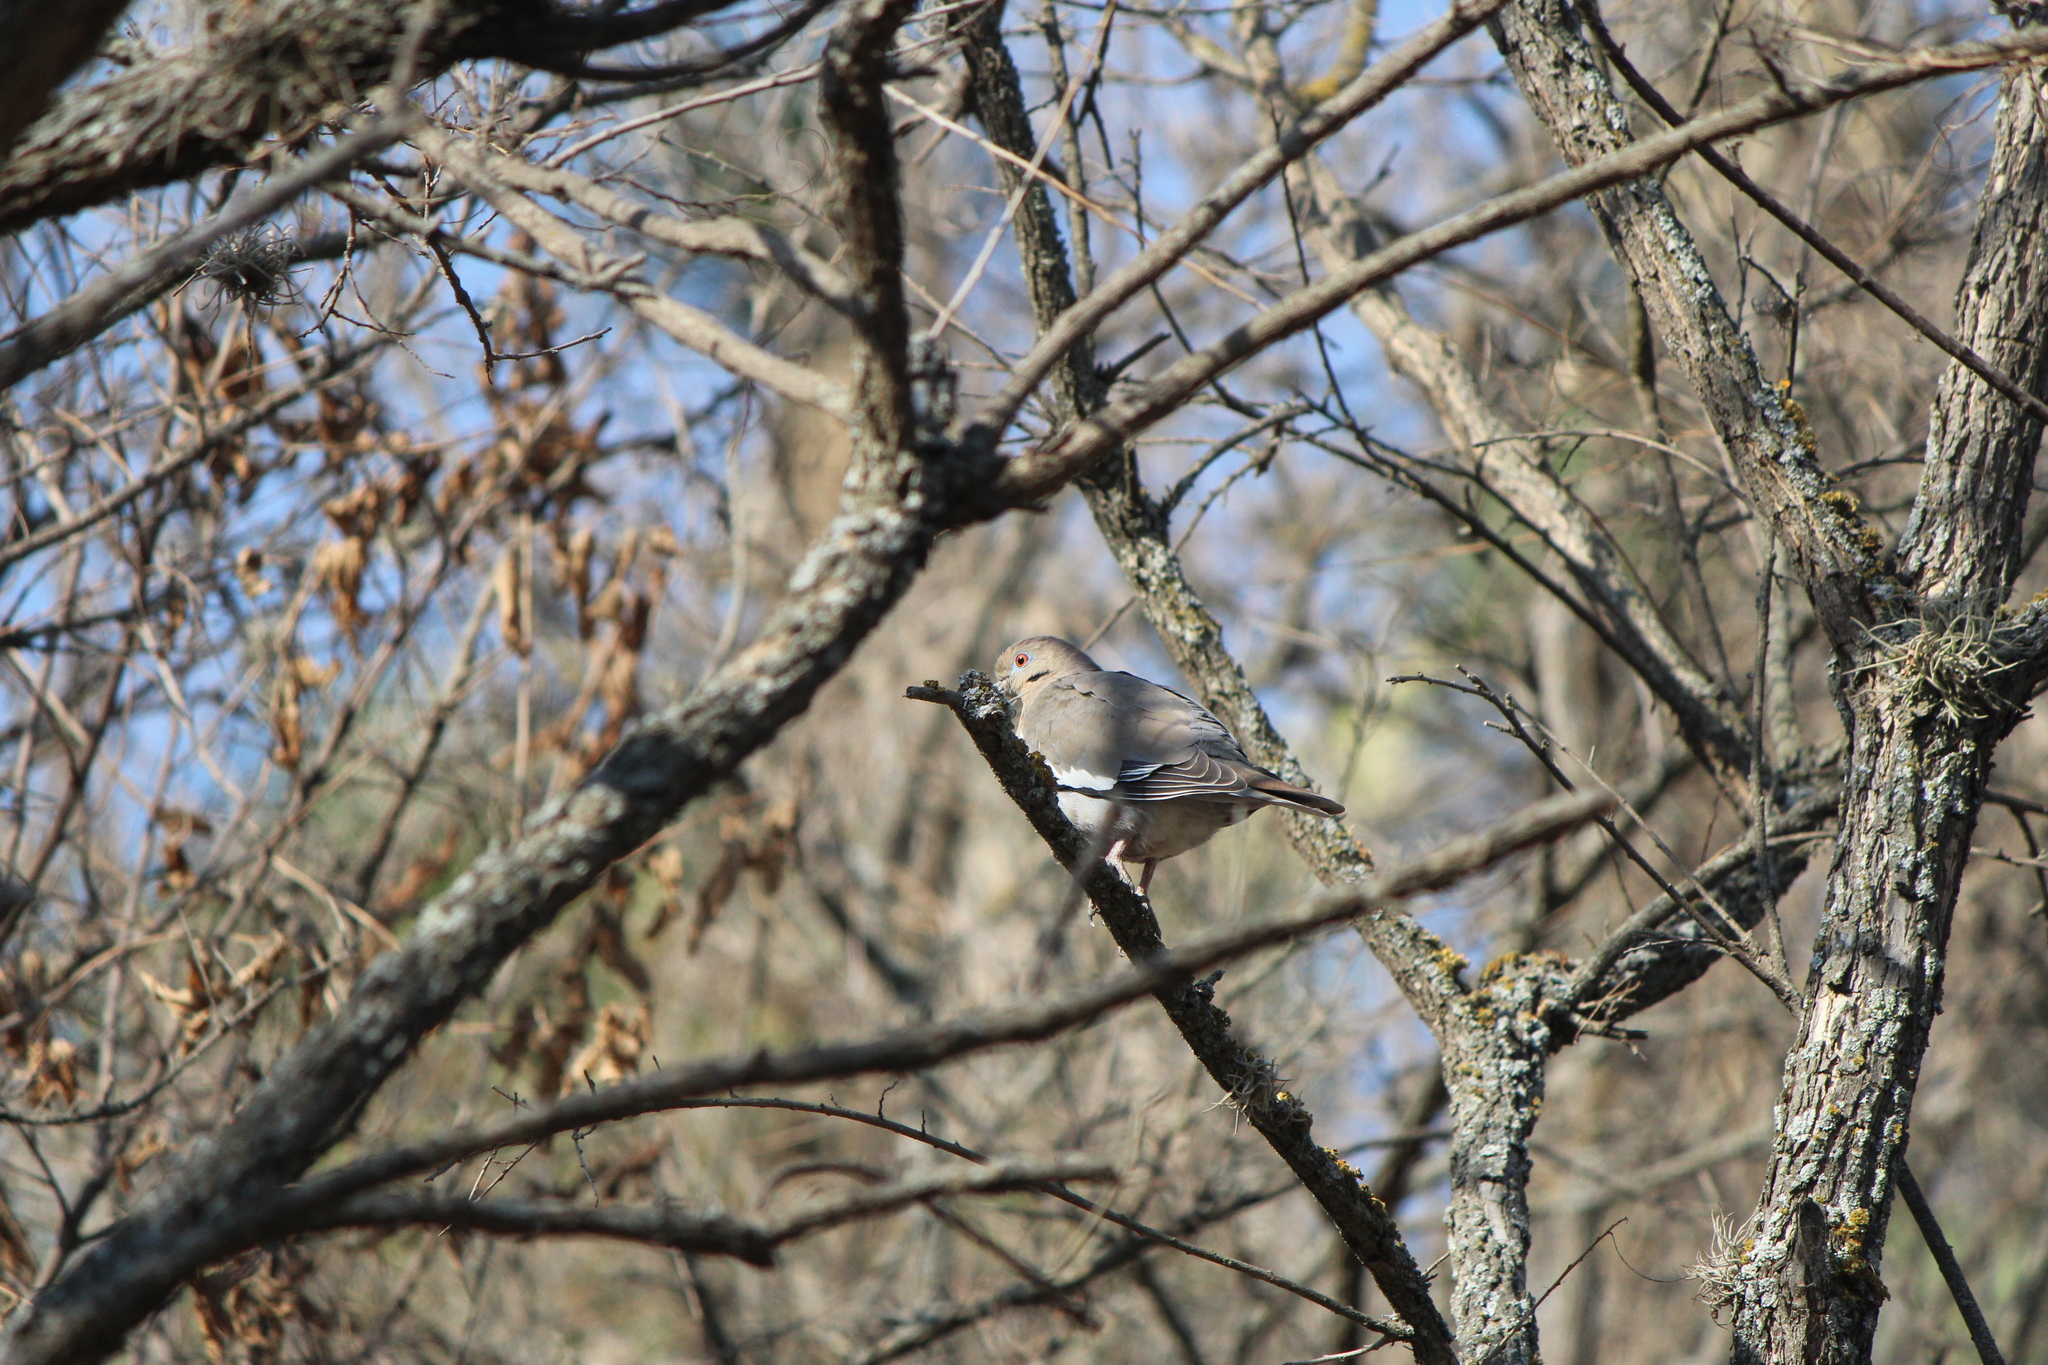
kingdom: Animalia
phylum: Chordata
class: Aves
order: Columbiformes
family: Columbidae
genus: Zenaida
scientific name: Zenaida asiatica
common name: White-winged dove
